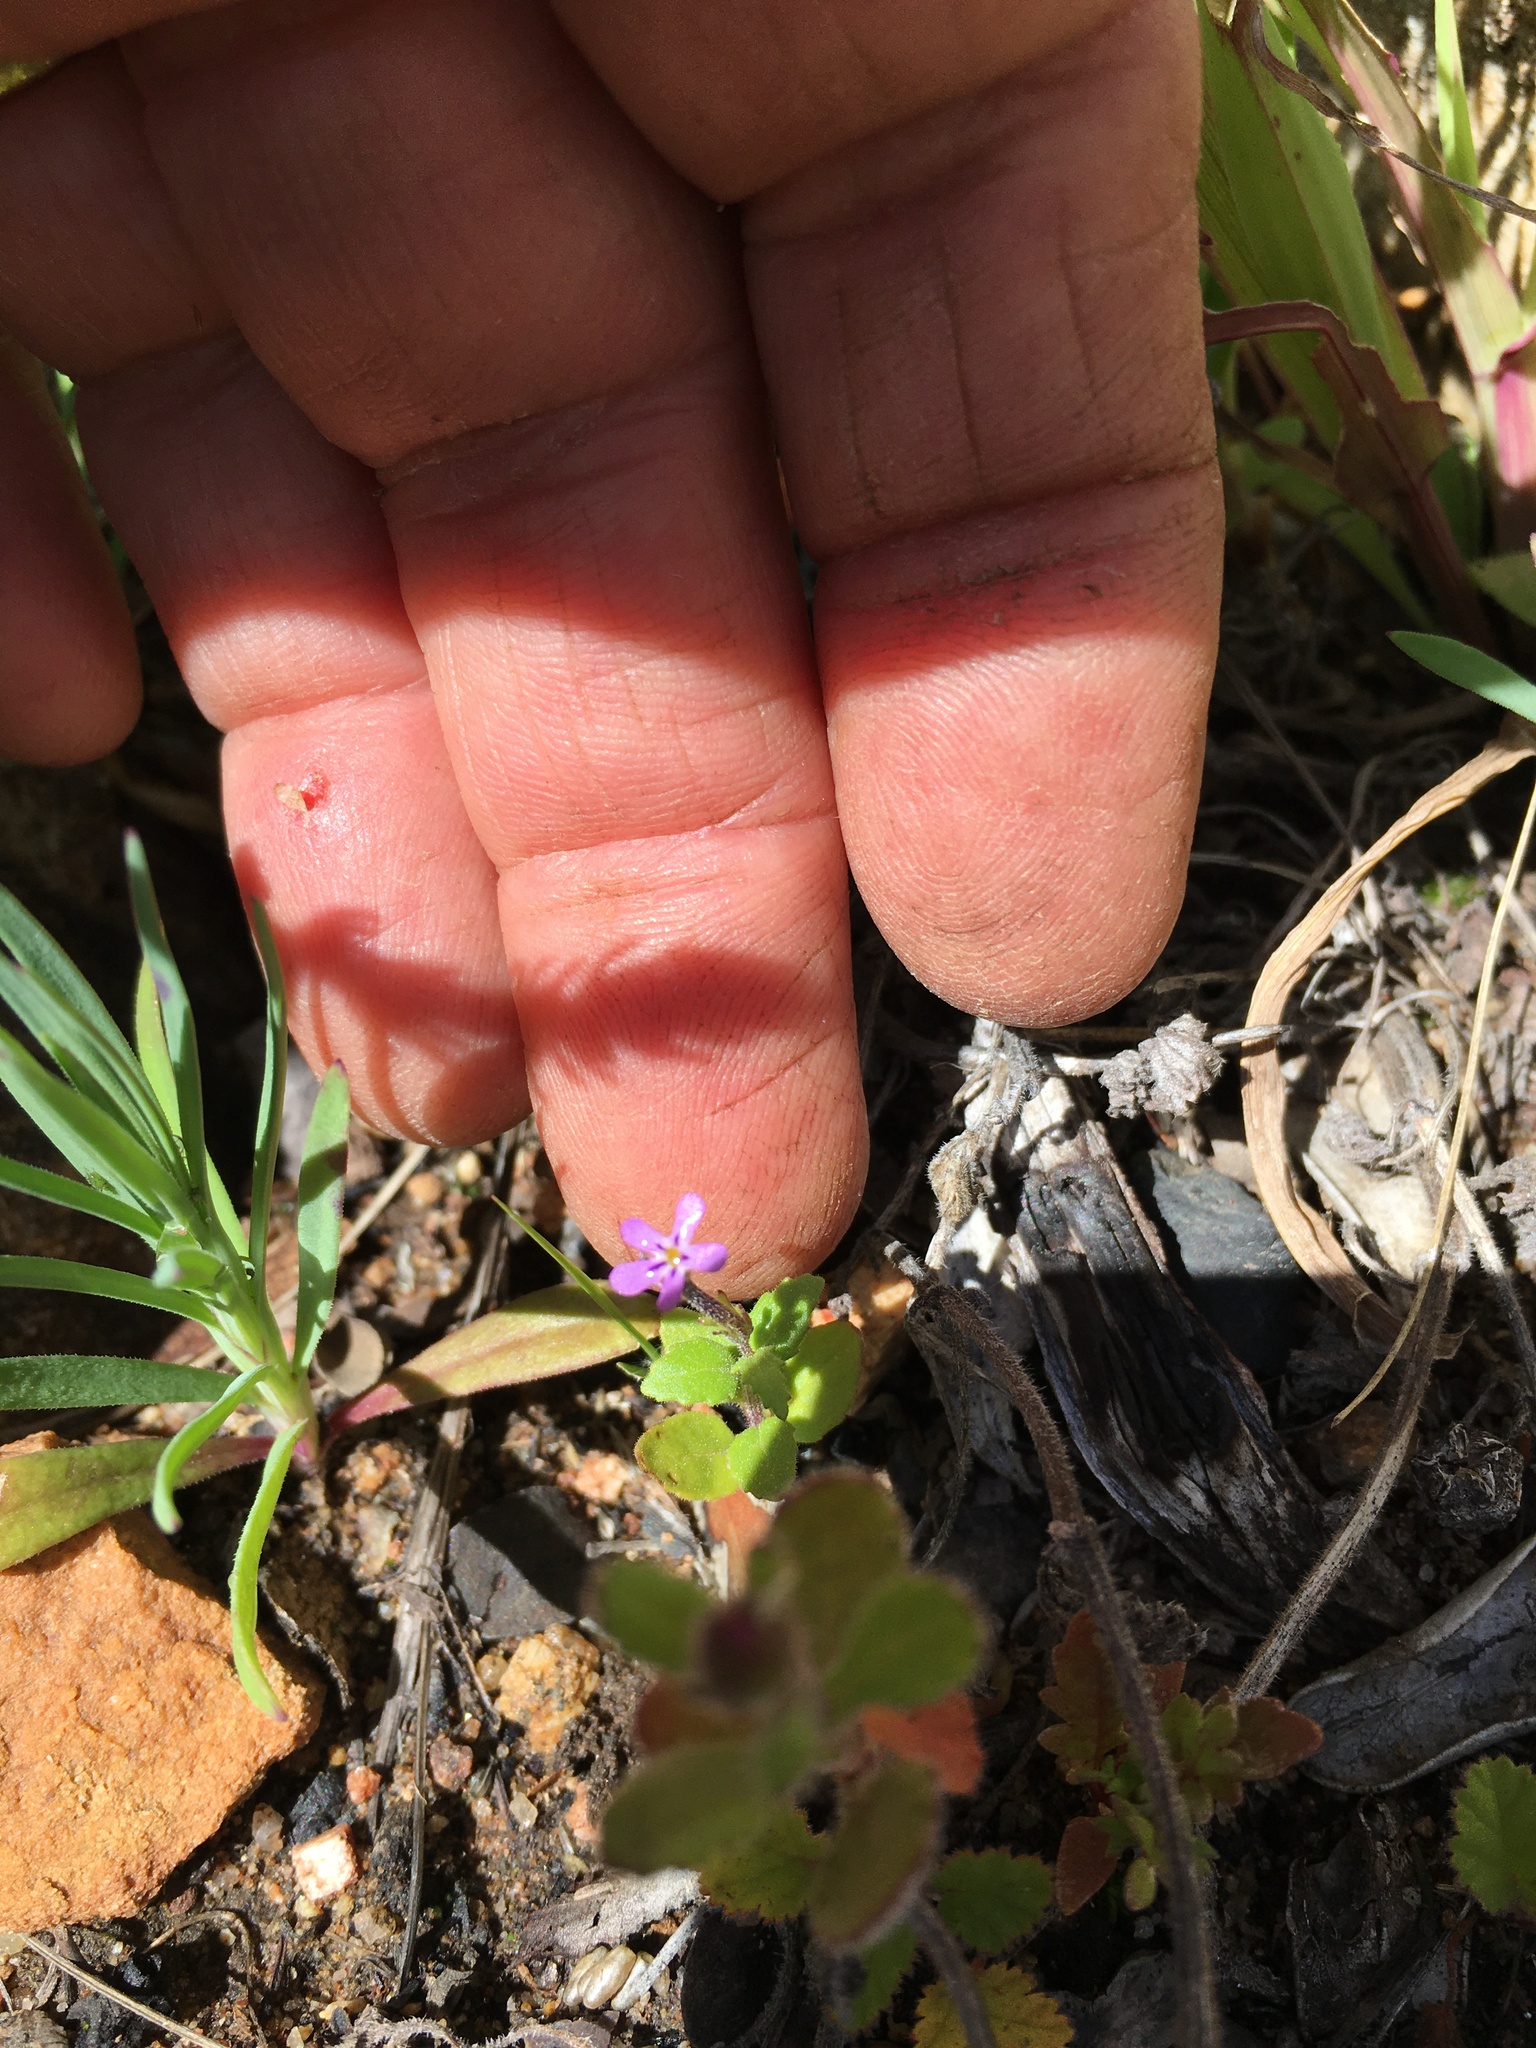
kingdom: Plantae
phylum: Tracheophyta
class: Magnoliopsida
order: Lamiales
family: Scrophulariaceae
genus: Lyperia
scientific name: Lyperia violacea
